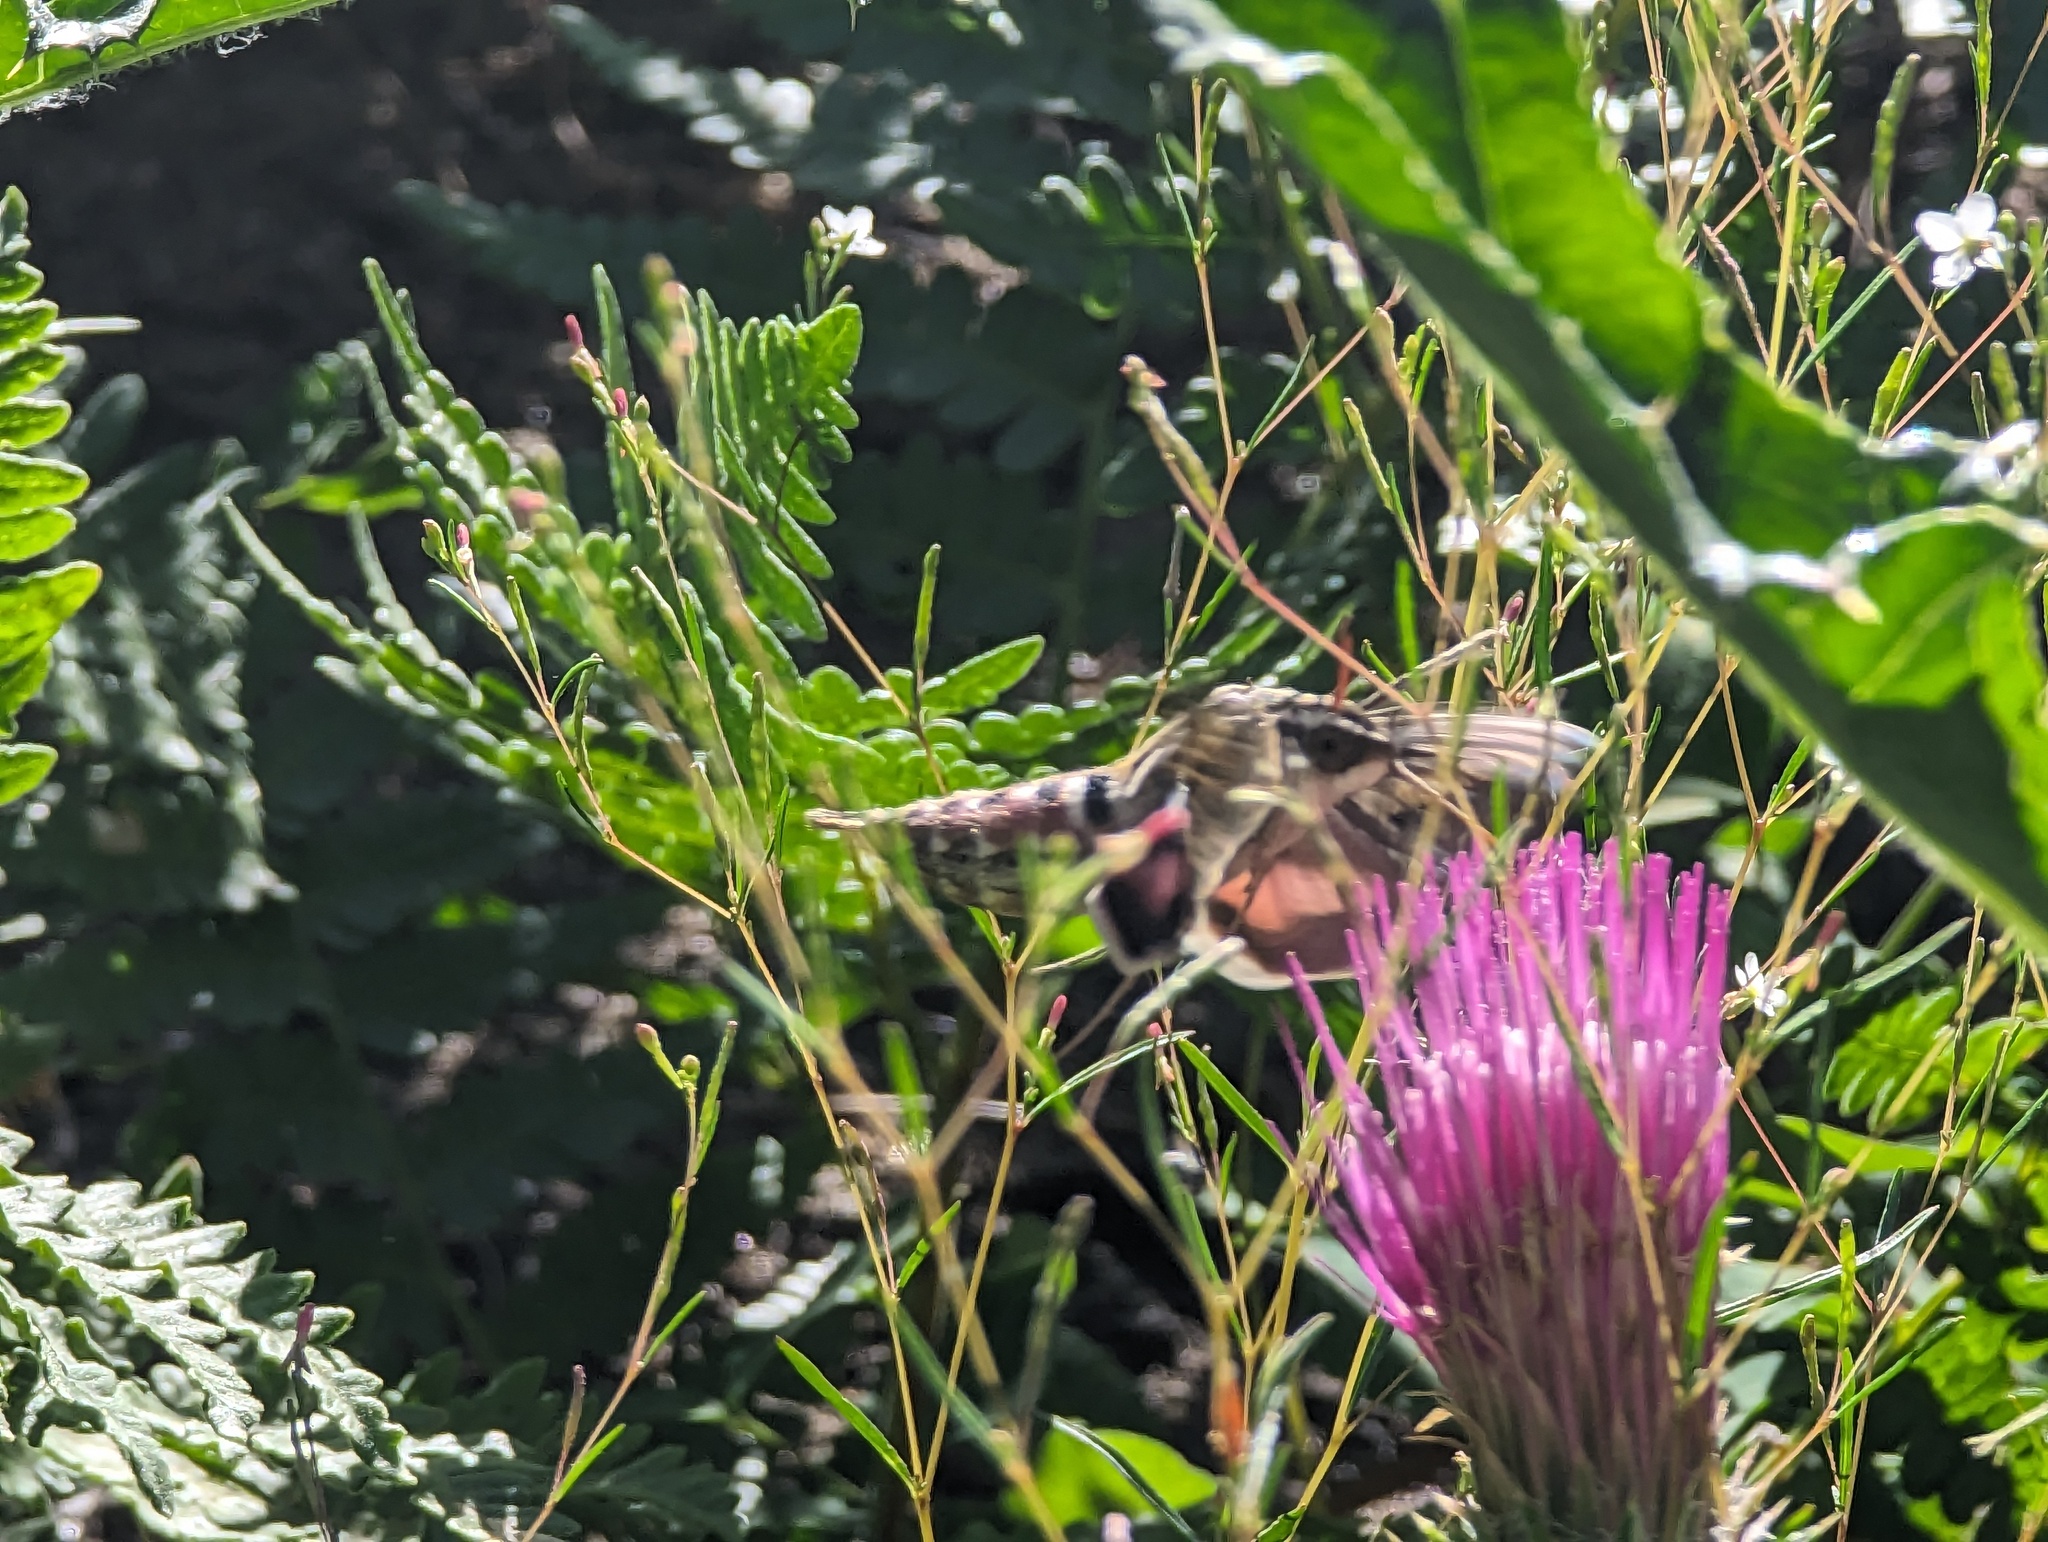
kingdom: Animalia
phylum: Arthropoda
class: Insecta
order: Lepidoptera
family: Sphingidae
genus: Hyles
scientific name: Hyles lineata
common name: White-lined sphinx
